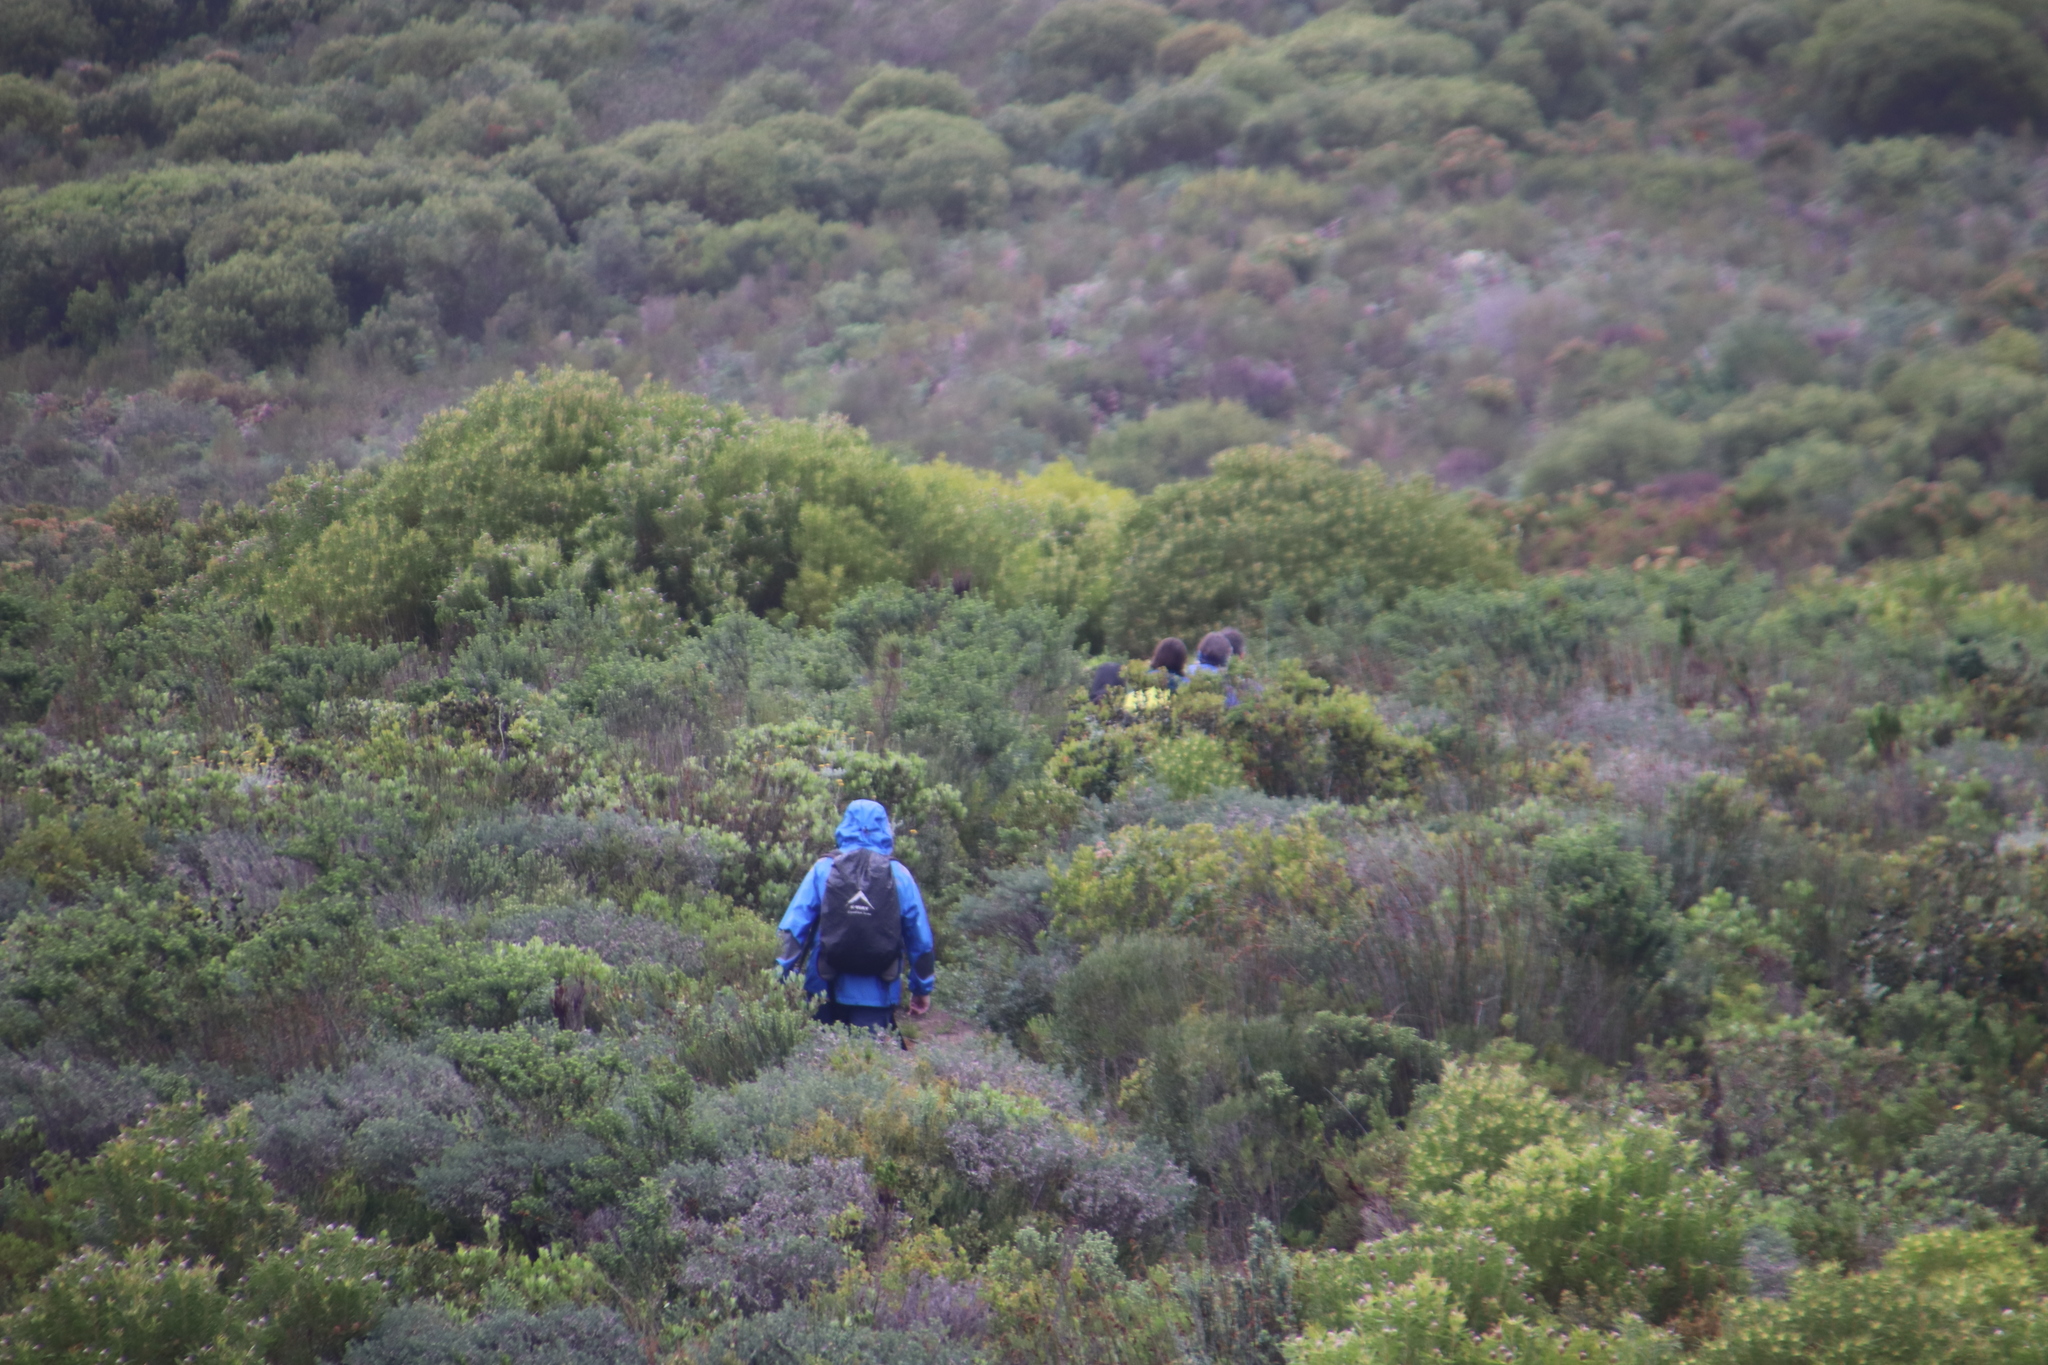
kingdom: Plantae
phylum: Tracheophyta
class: Magnoliopsida
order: Proteales
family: Proteaceae
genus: Leucadendron
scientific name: Leucadendron coniferum
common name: Dune conebush
